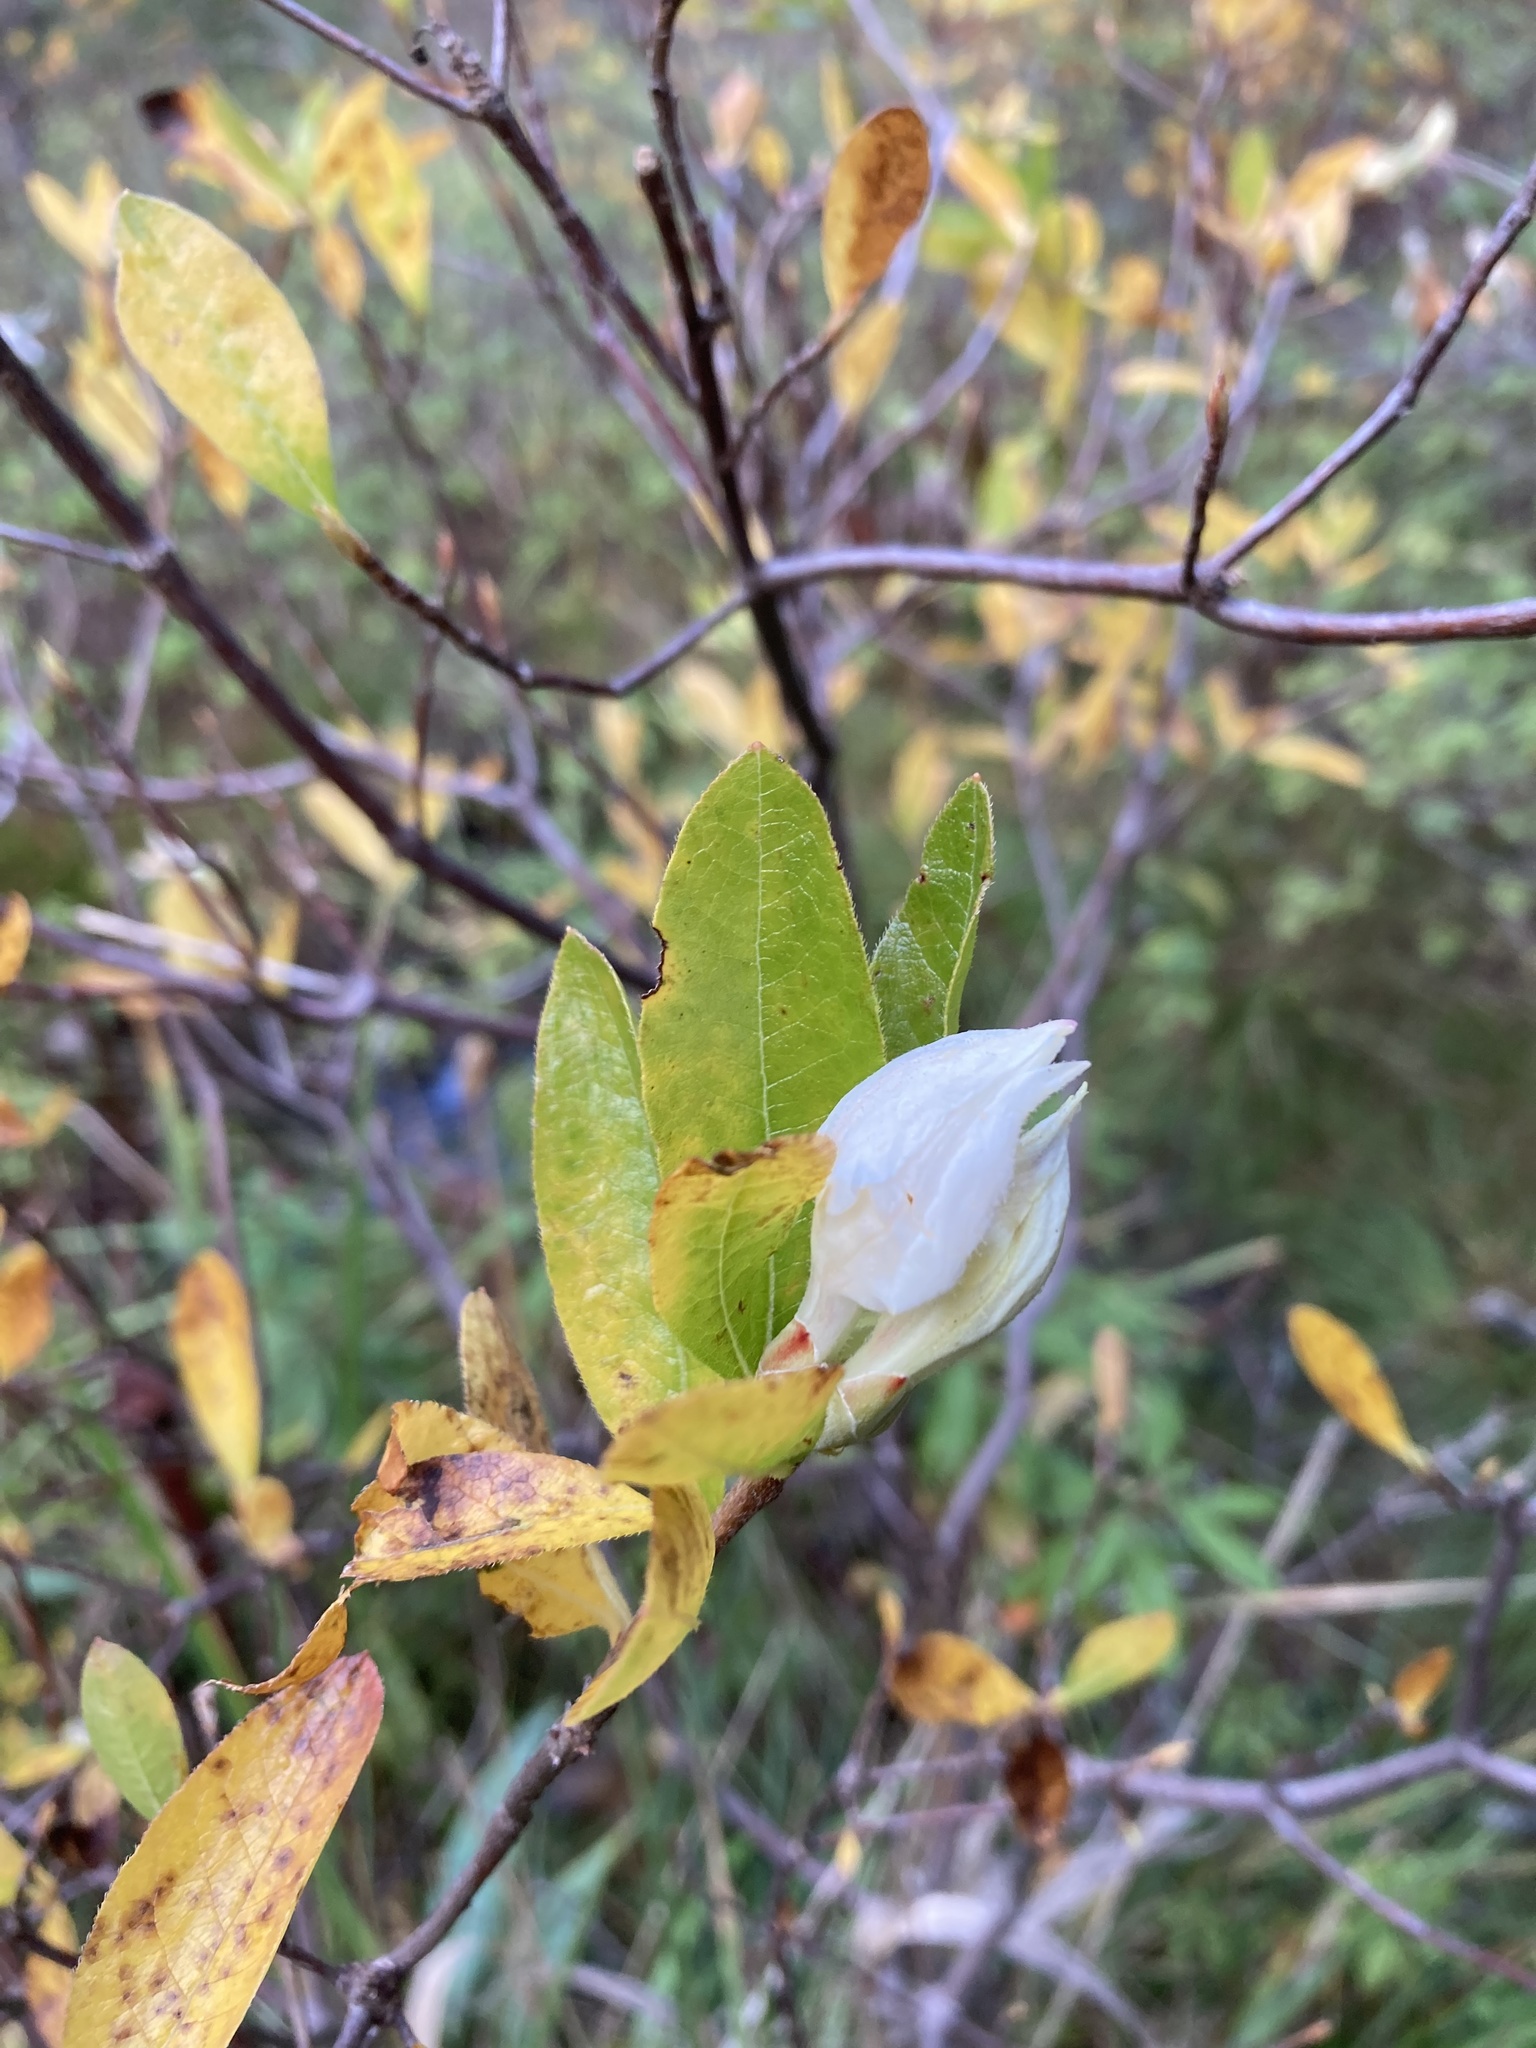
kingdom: Plantae
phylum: Tracheophyta
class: Magnoliopsida
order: Ericales
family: Ericaceae
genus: Rhododendron
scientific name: Rhododendron occidentale
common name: Western azalea
